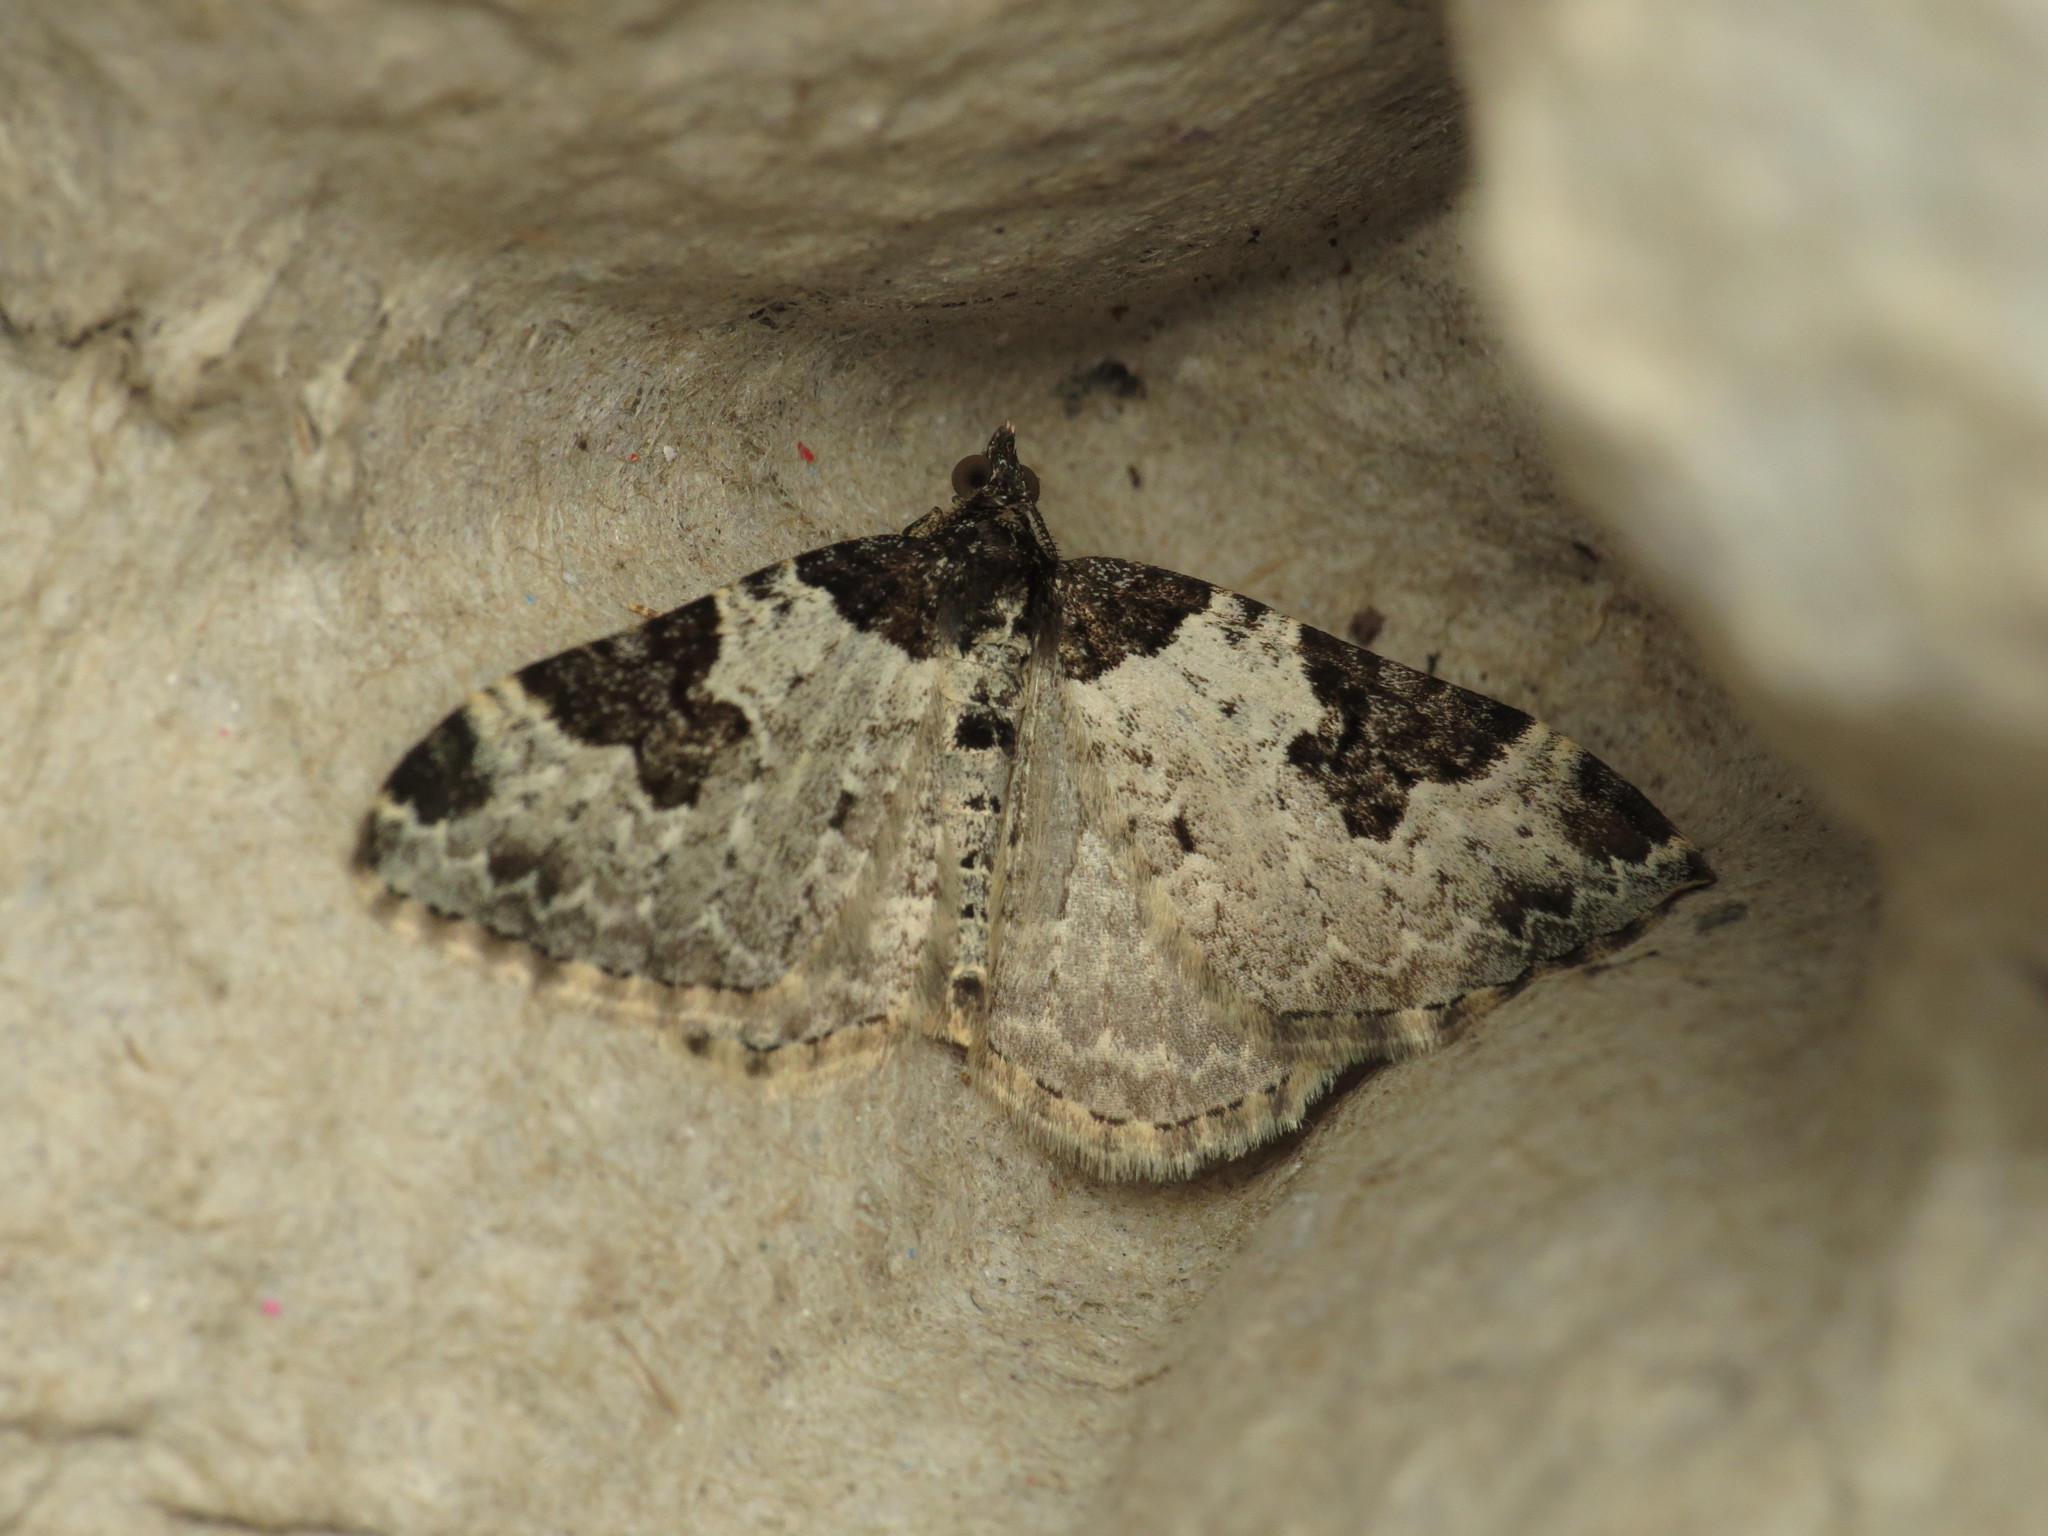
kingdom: Animalia
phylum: Arthropoda
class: Insecta
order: Lepidoptera
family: Geometridae
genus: Xanthorhoe
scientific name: Xanthorhoe fluctuata
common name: Garden carpet
